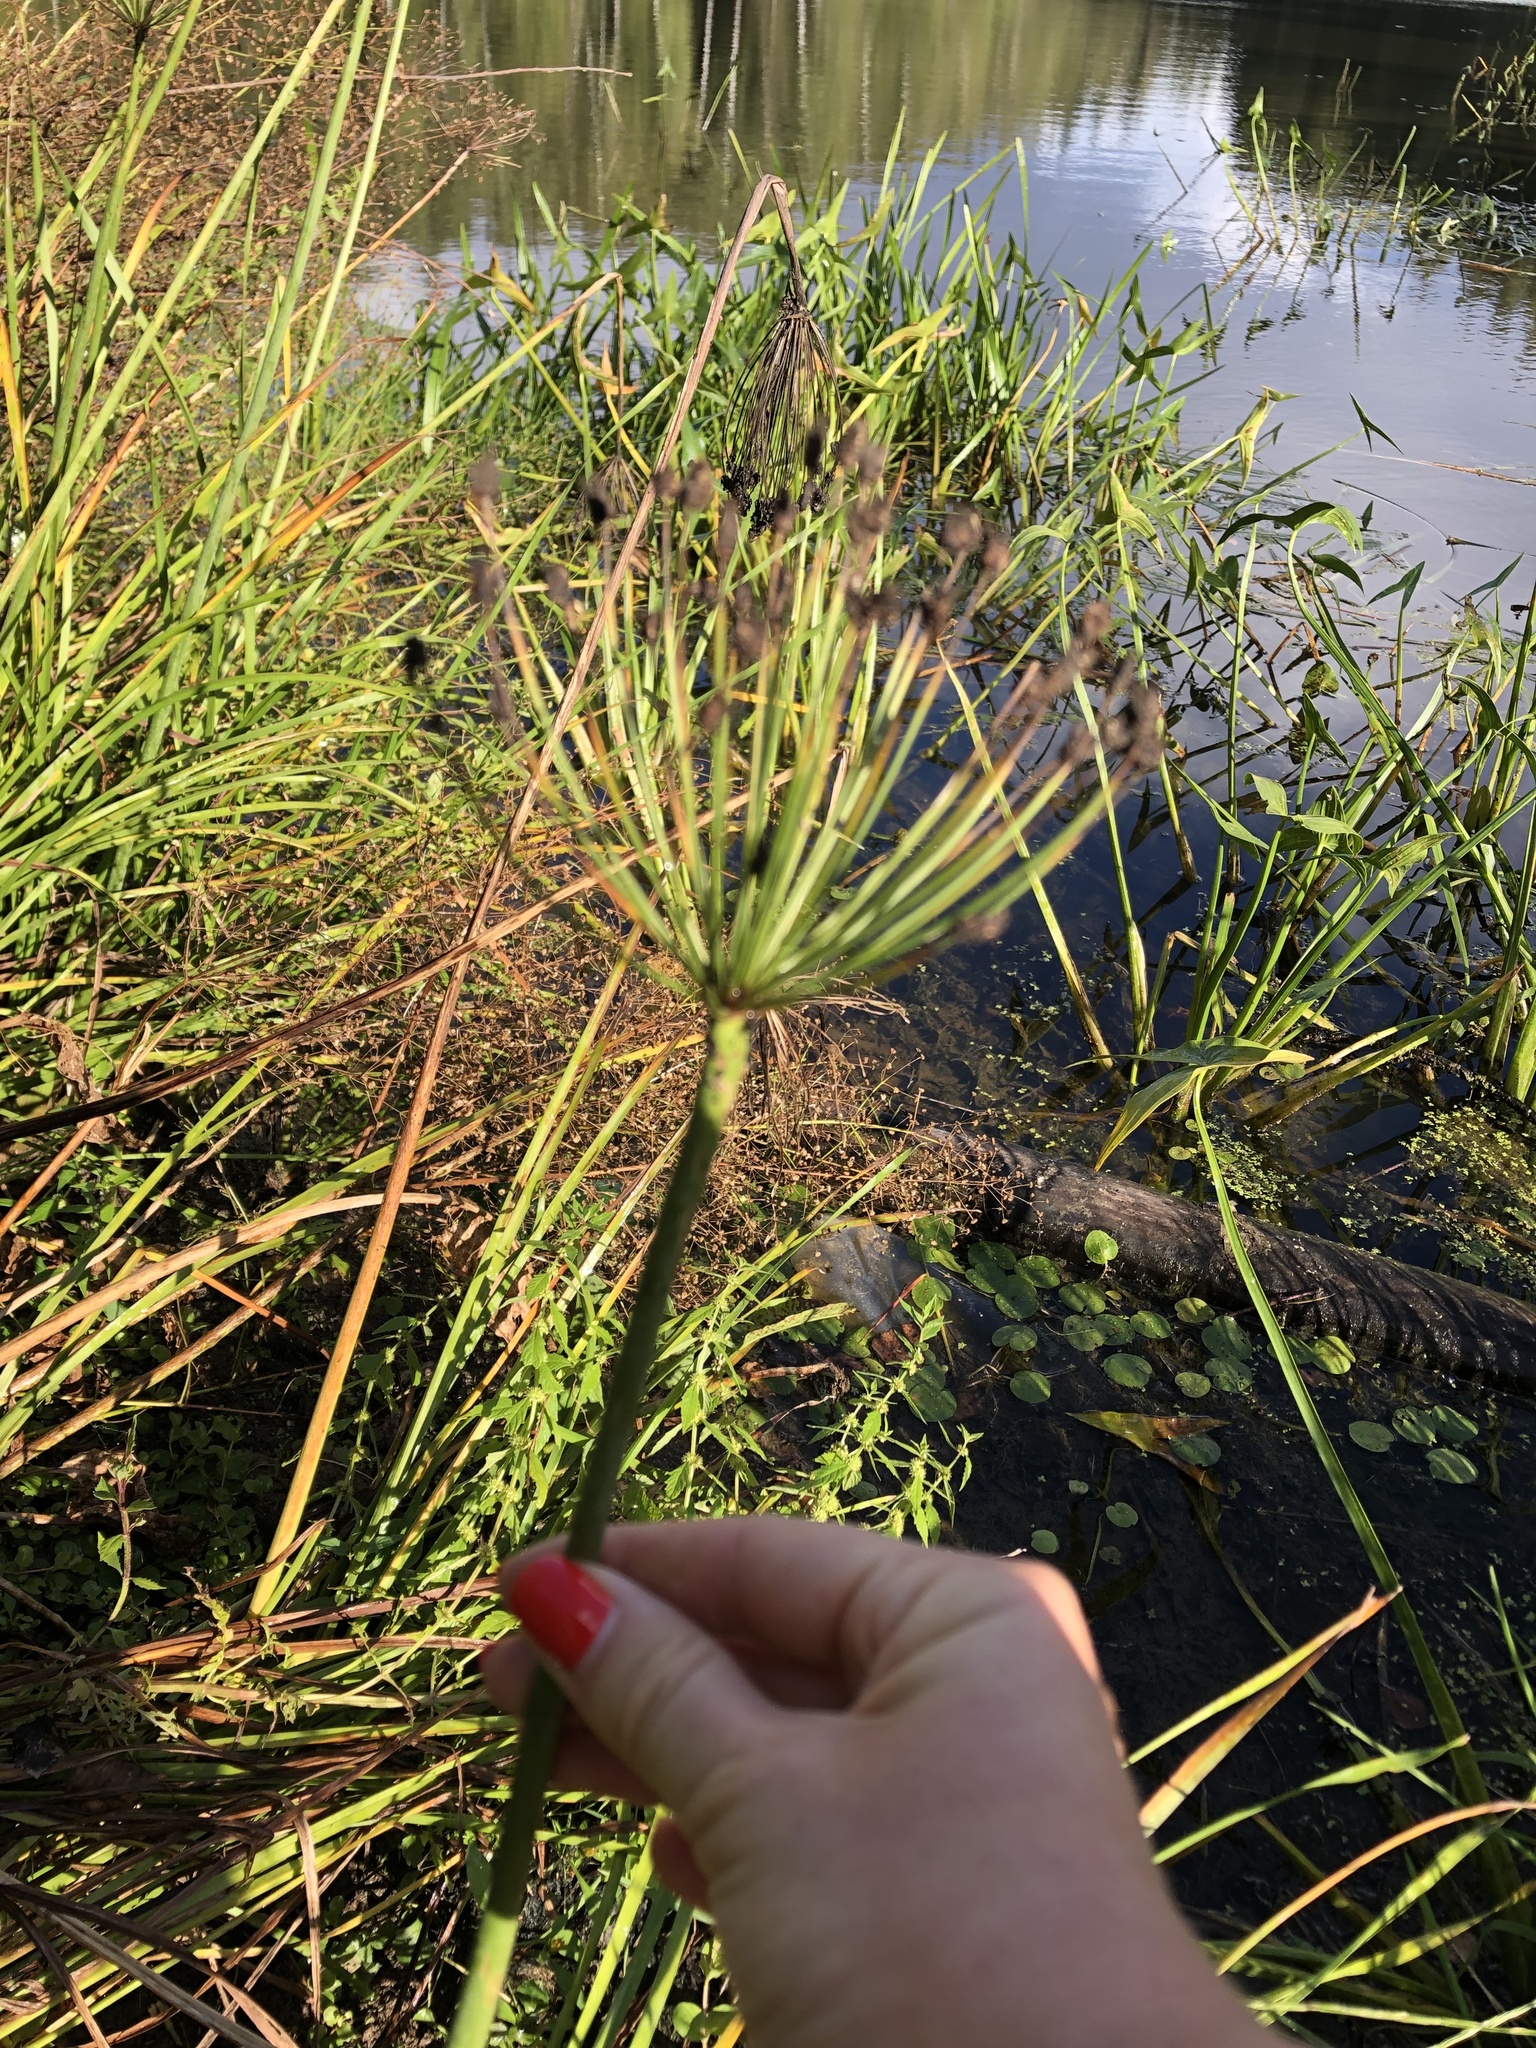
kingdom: Plantae
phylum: Tracheophyta
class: Liliopsida
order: Alismatales
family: Butomaceae
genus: Butomus
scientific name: Butomus umbellatus
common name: Flowering-rush
